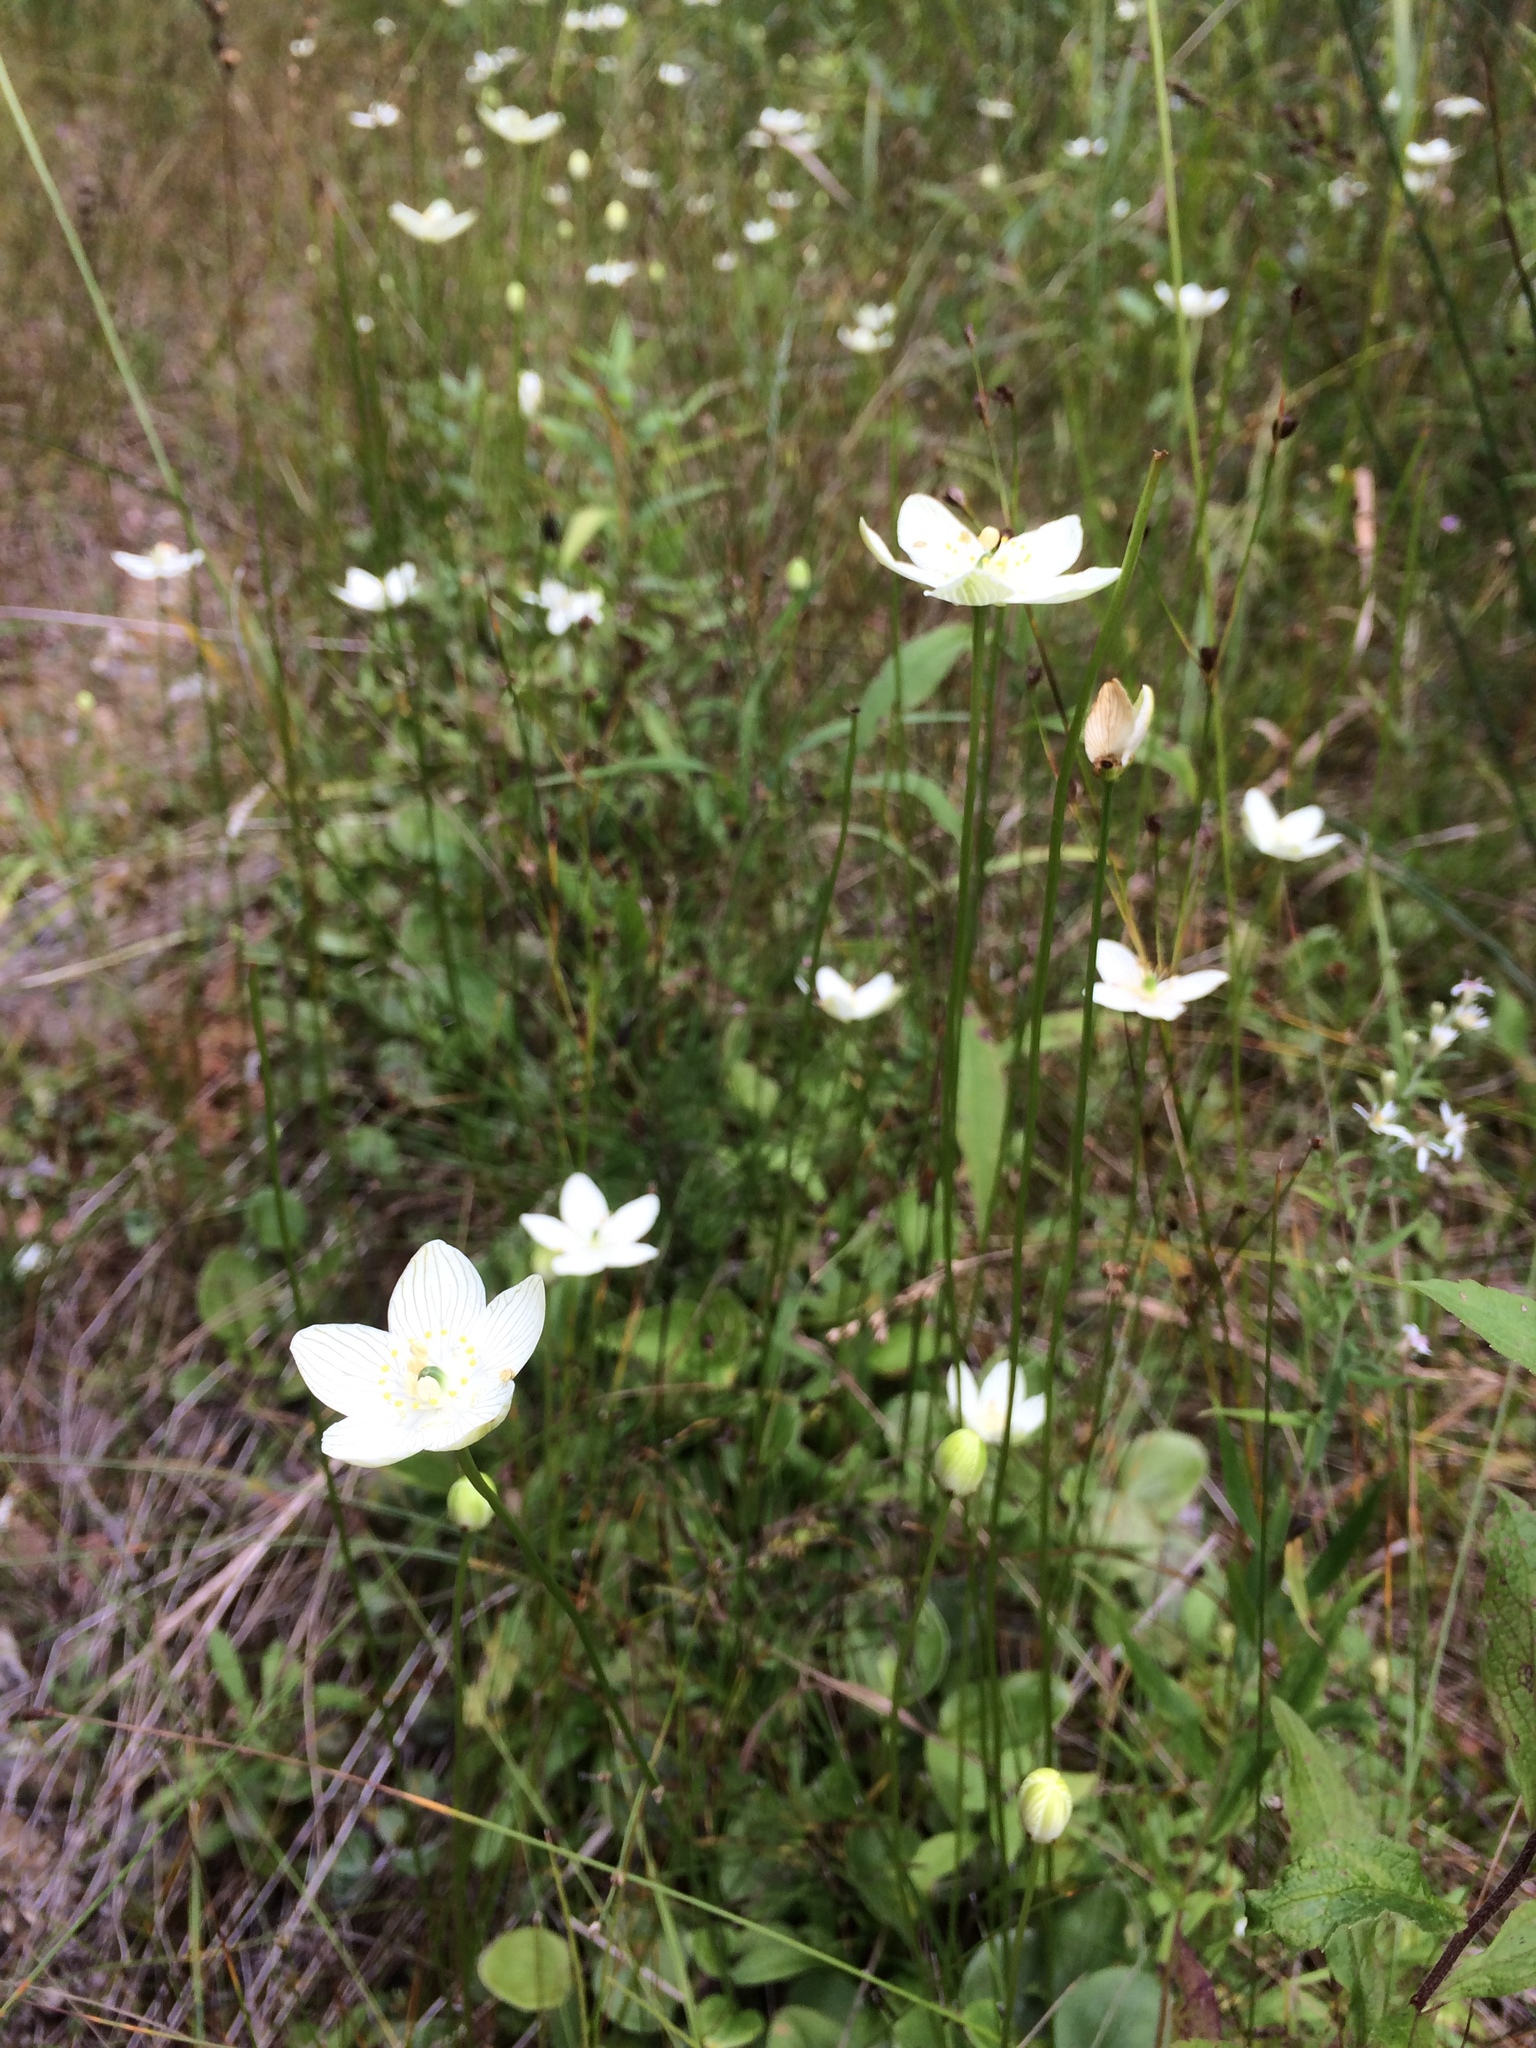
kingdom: Plantae
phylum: Tracheophyta
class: Magnoliopsida
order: Celastrales
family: Parnassiaceae
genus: Parnassia
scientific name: Parnassia glauca
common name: American grass-of-parnassus
